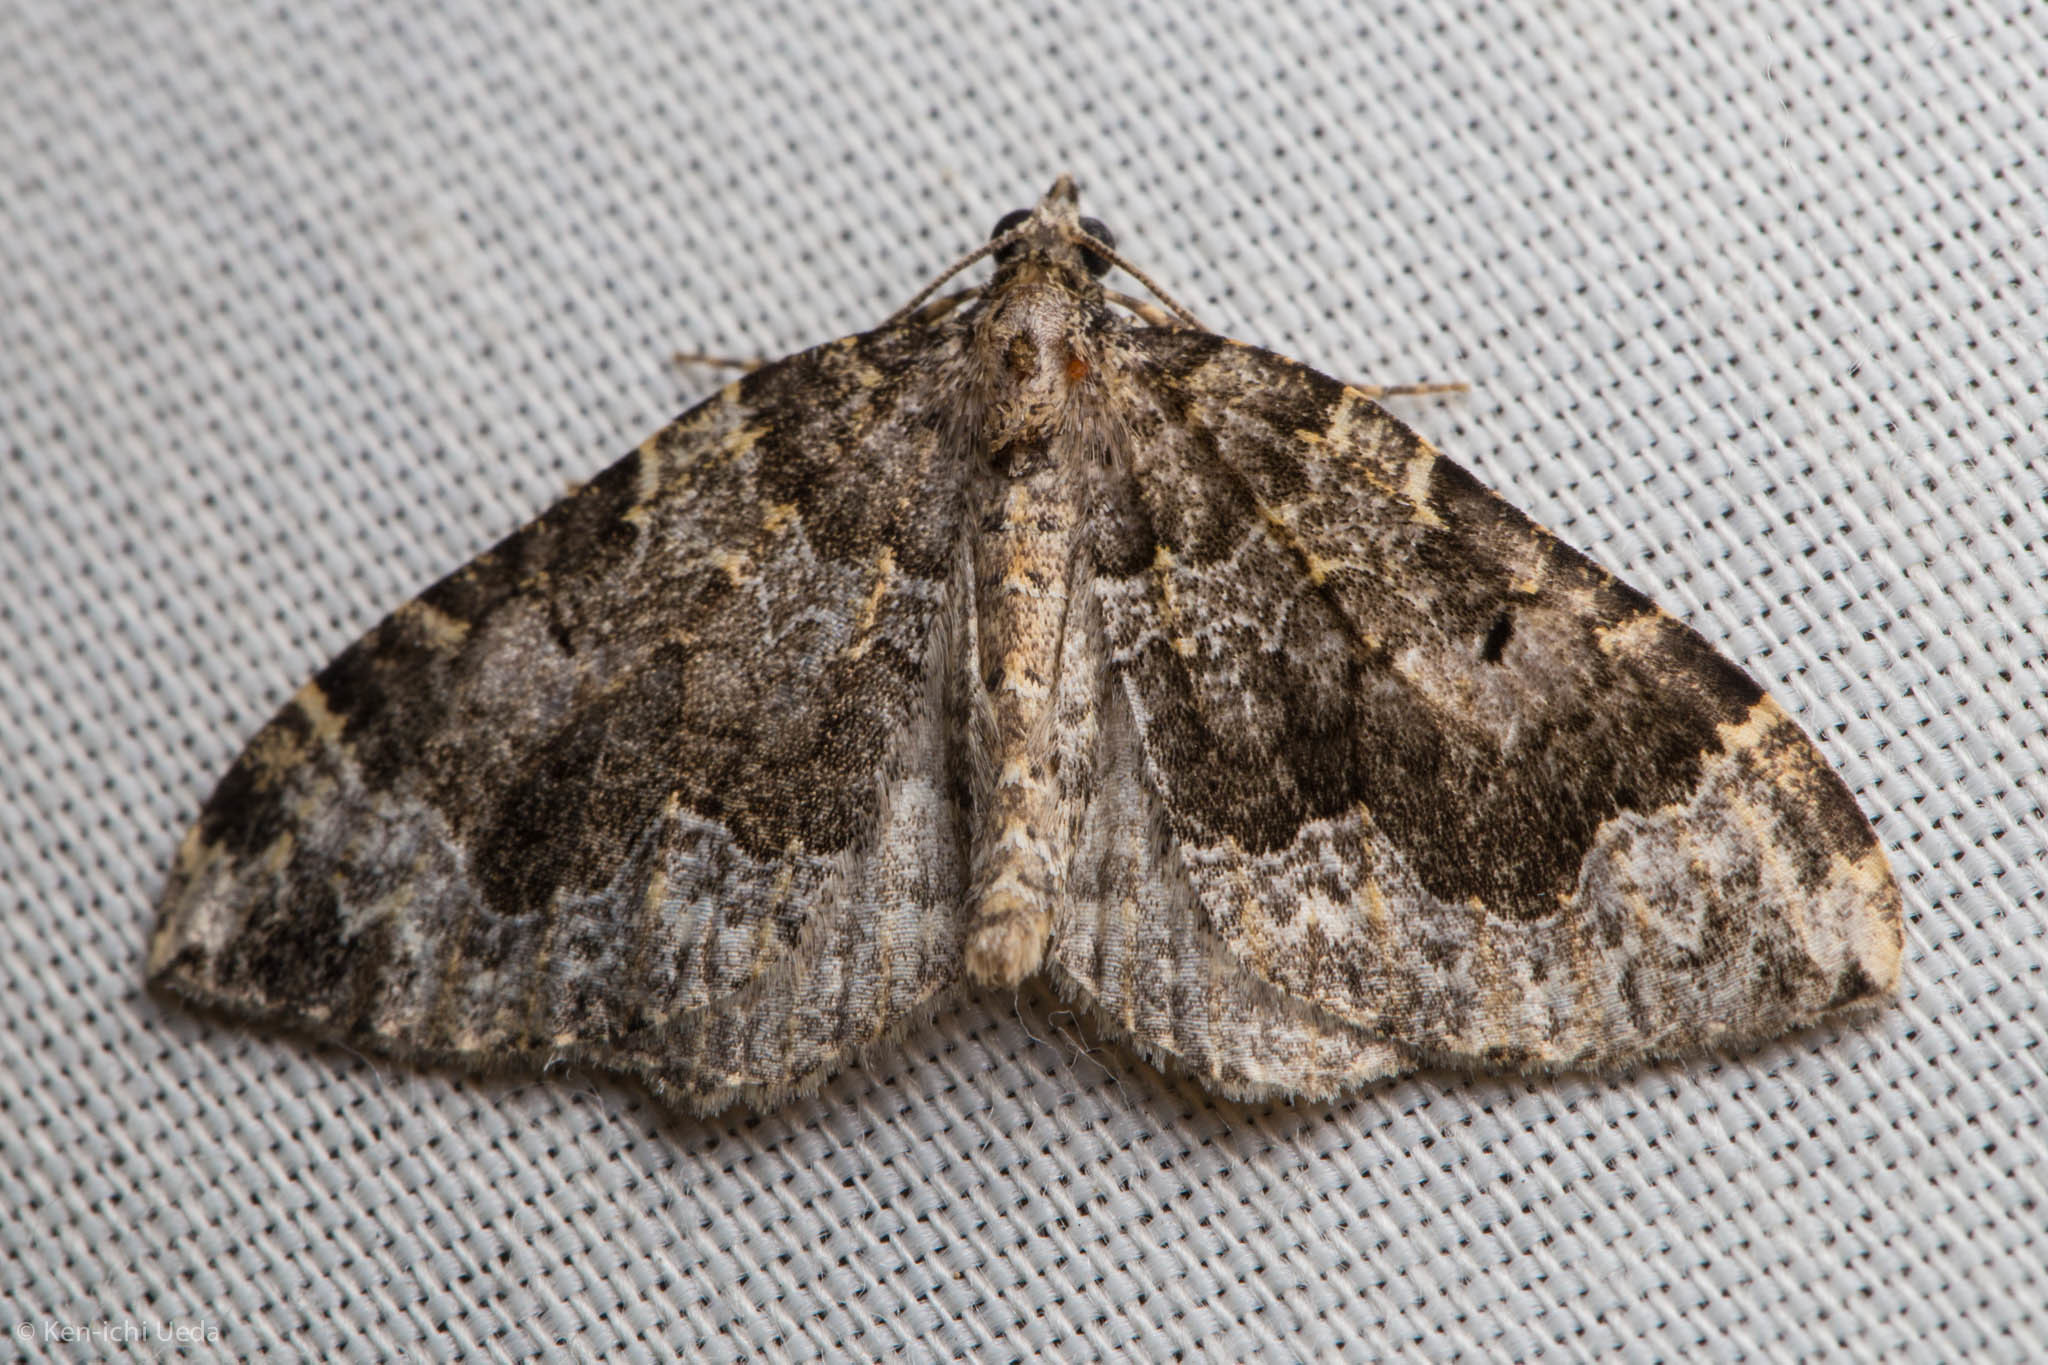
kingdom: Animalia
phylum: Arthropoda
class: Insecta
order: Lepidoptera
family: Geometridae
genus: Eustroma
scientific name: Eustroma semiatrata
